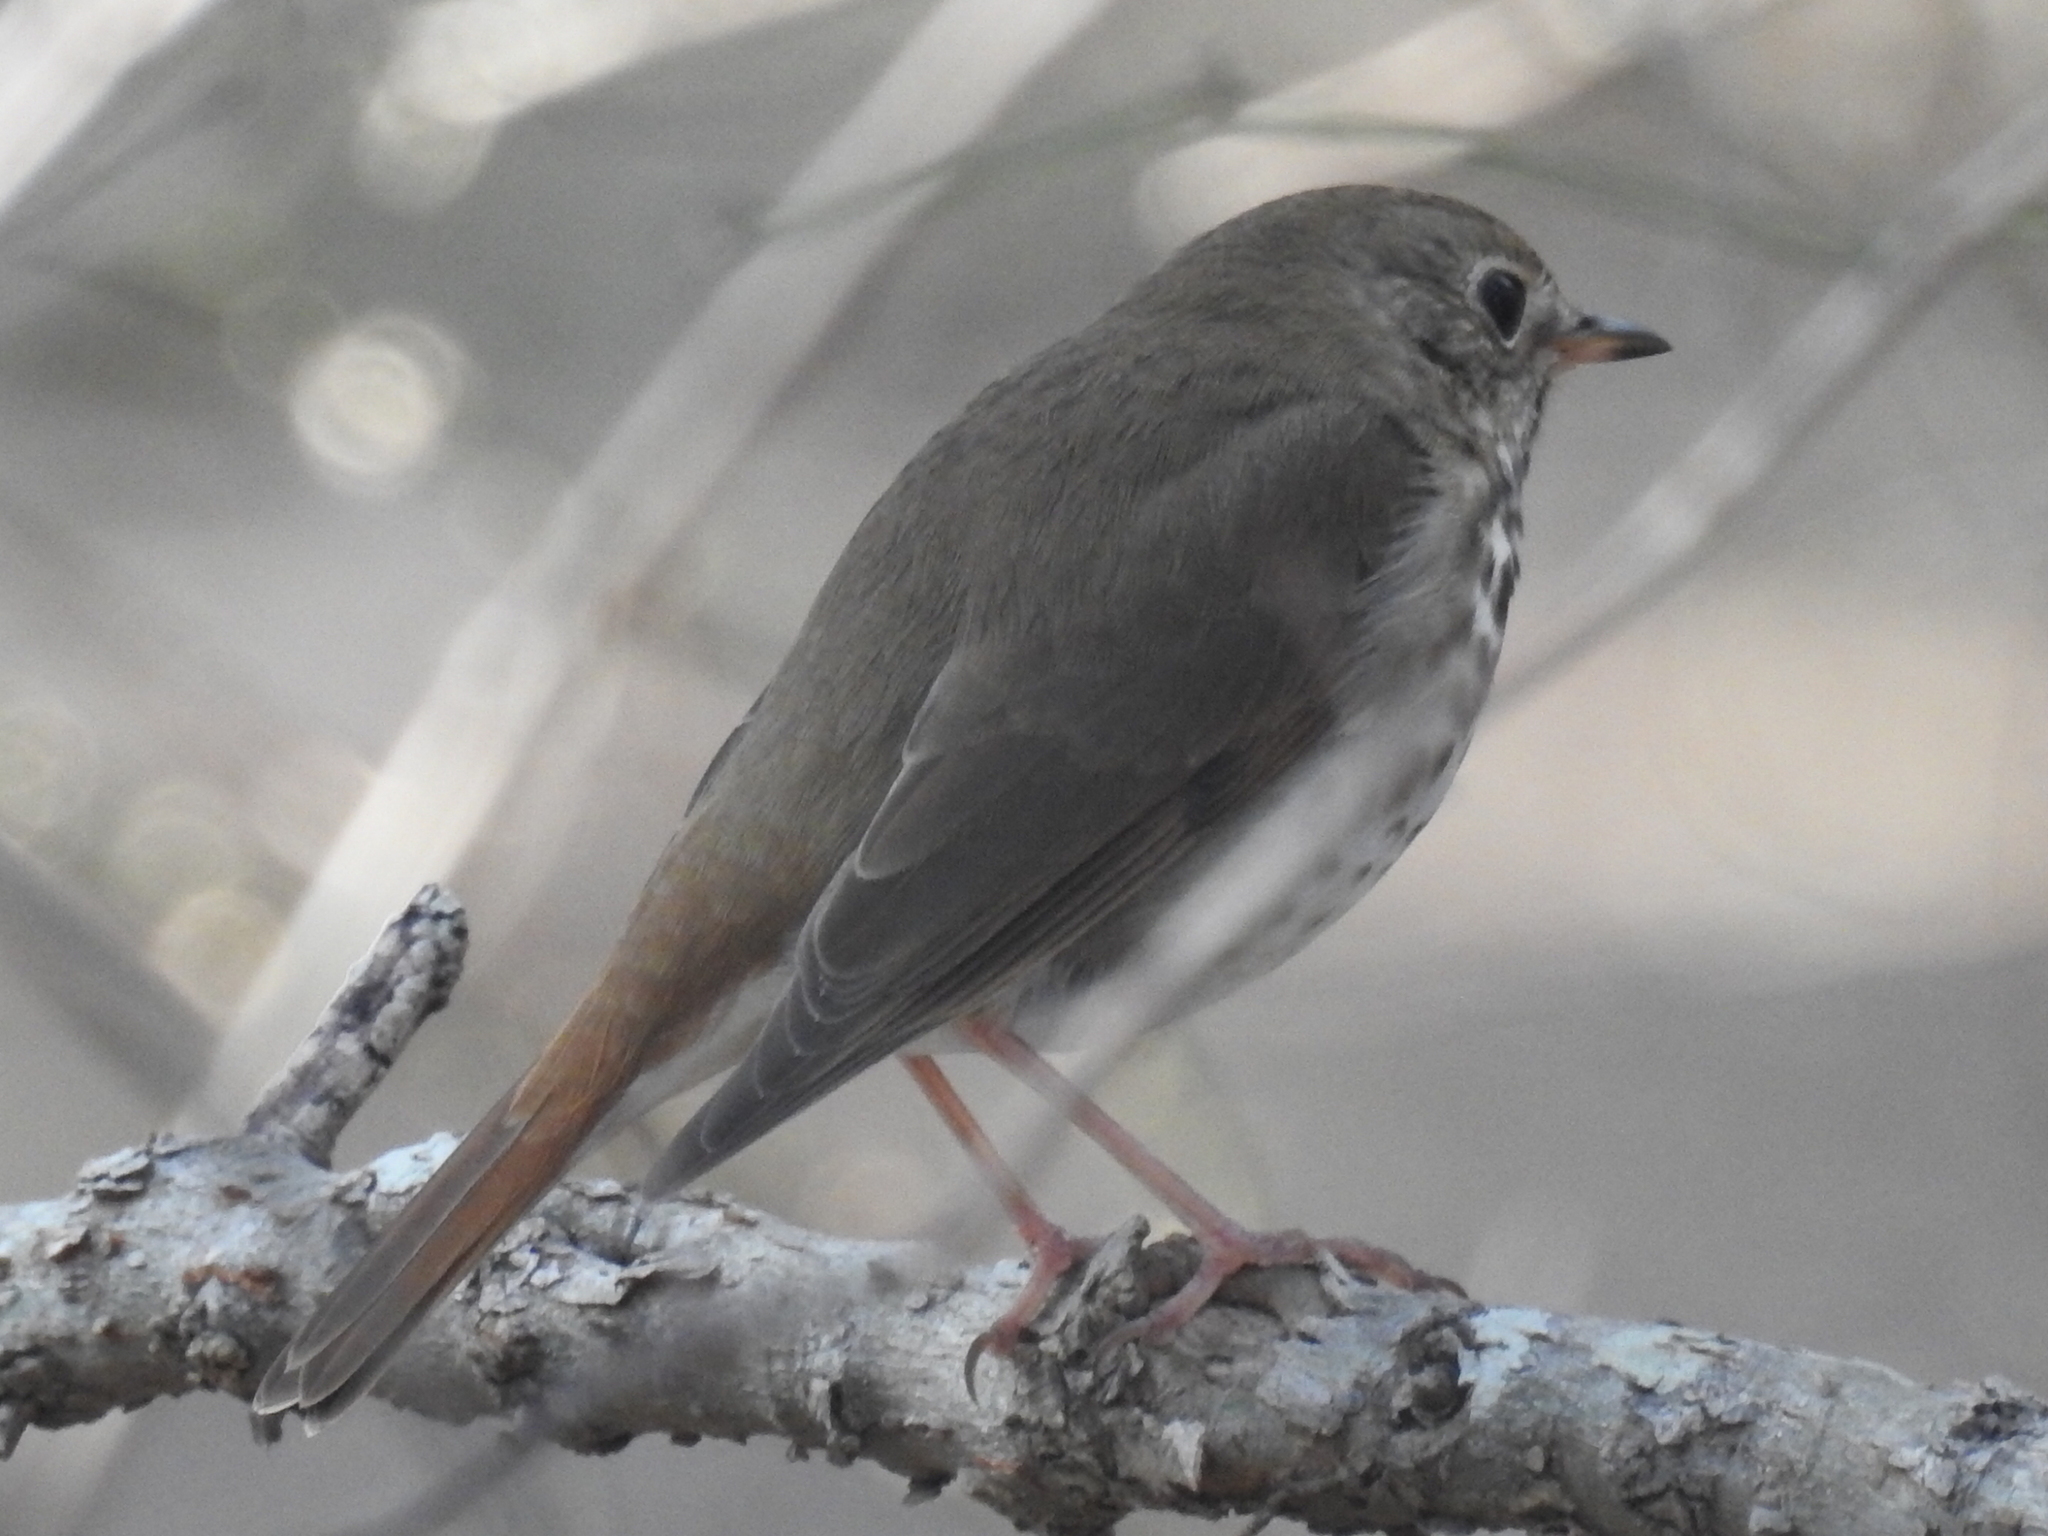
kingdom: Animalia
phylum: Chordata
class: Aves
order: Passeriformes
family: Turdidae
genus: Catharus
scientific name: Catharus guttatus
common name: Hermit thrush
